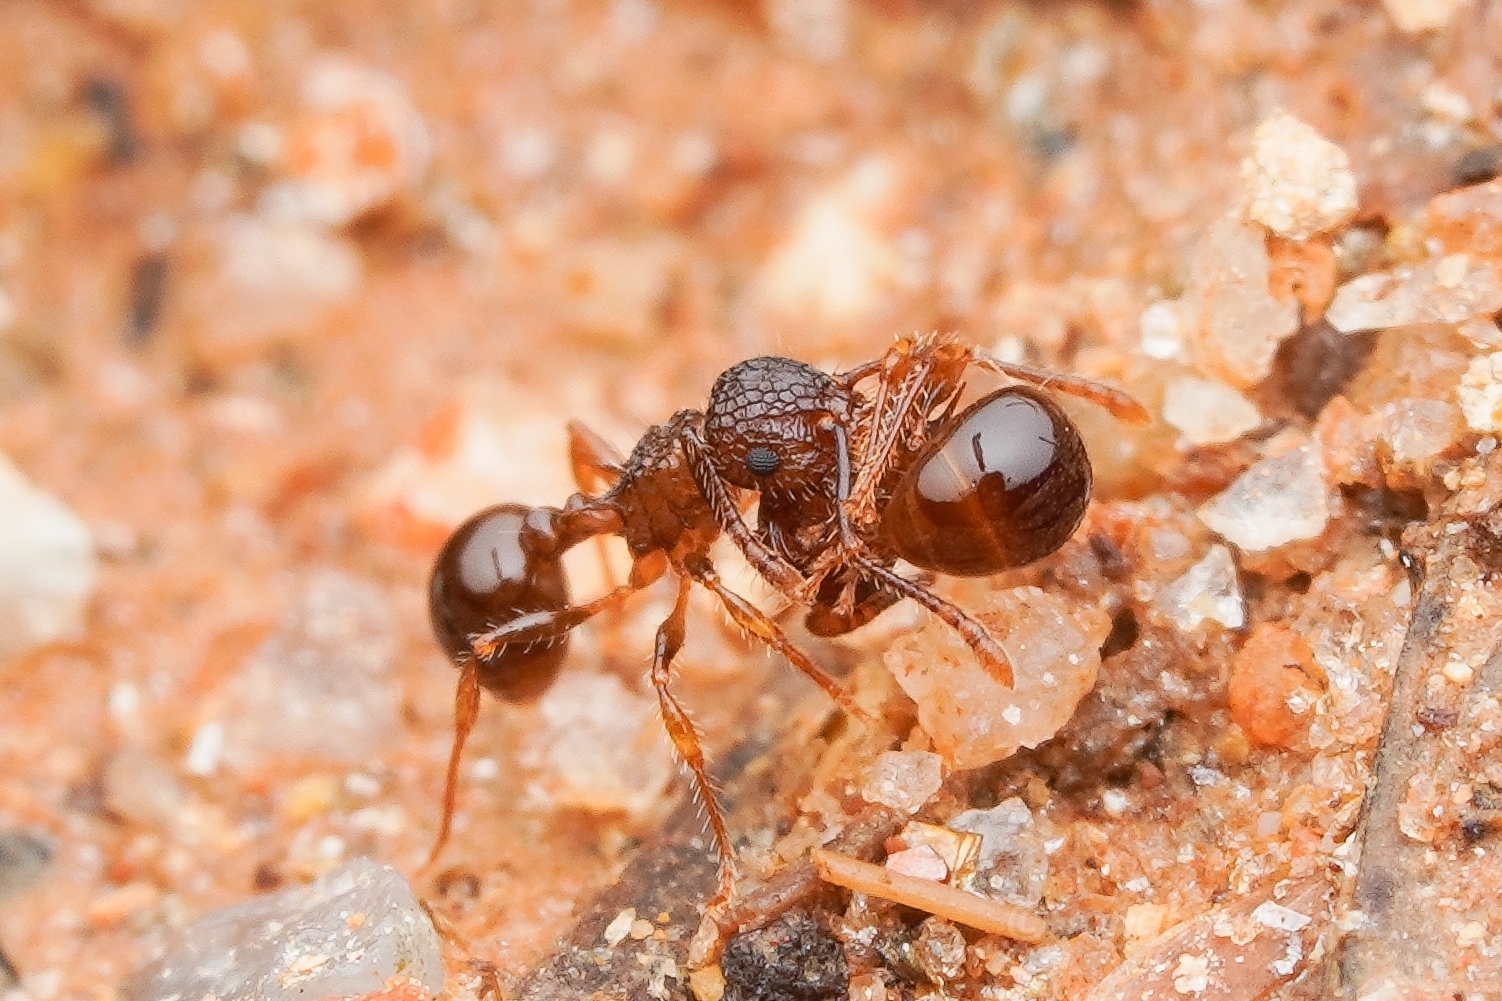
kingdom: Animalia
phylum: Arthropoda
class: Insecta
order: Hymenoptera
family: Formicidae
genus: Pristomyrmex
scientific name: Pristomyrmex punctatus
